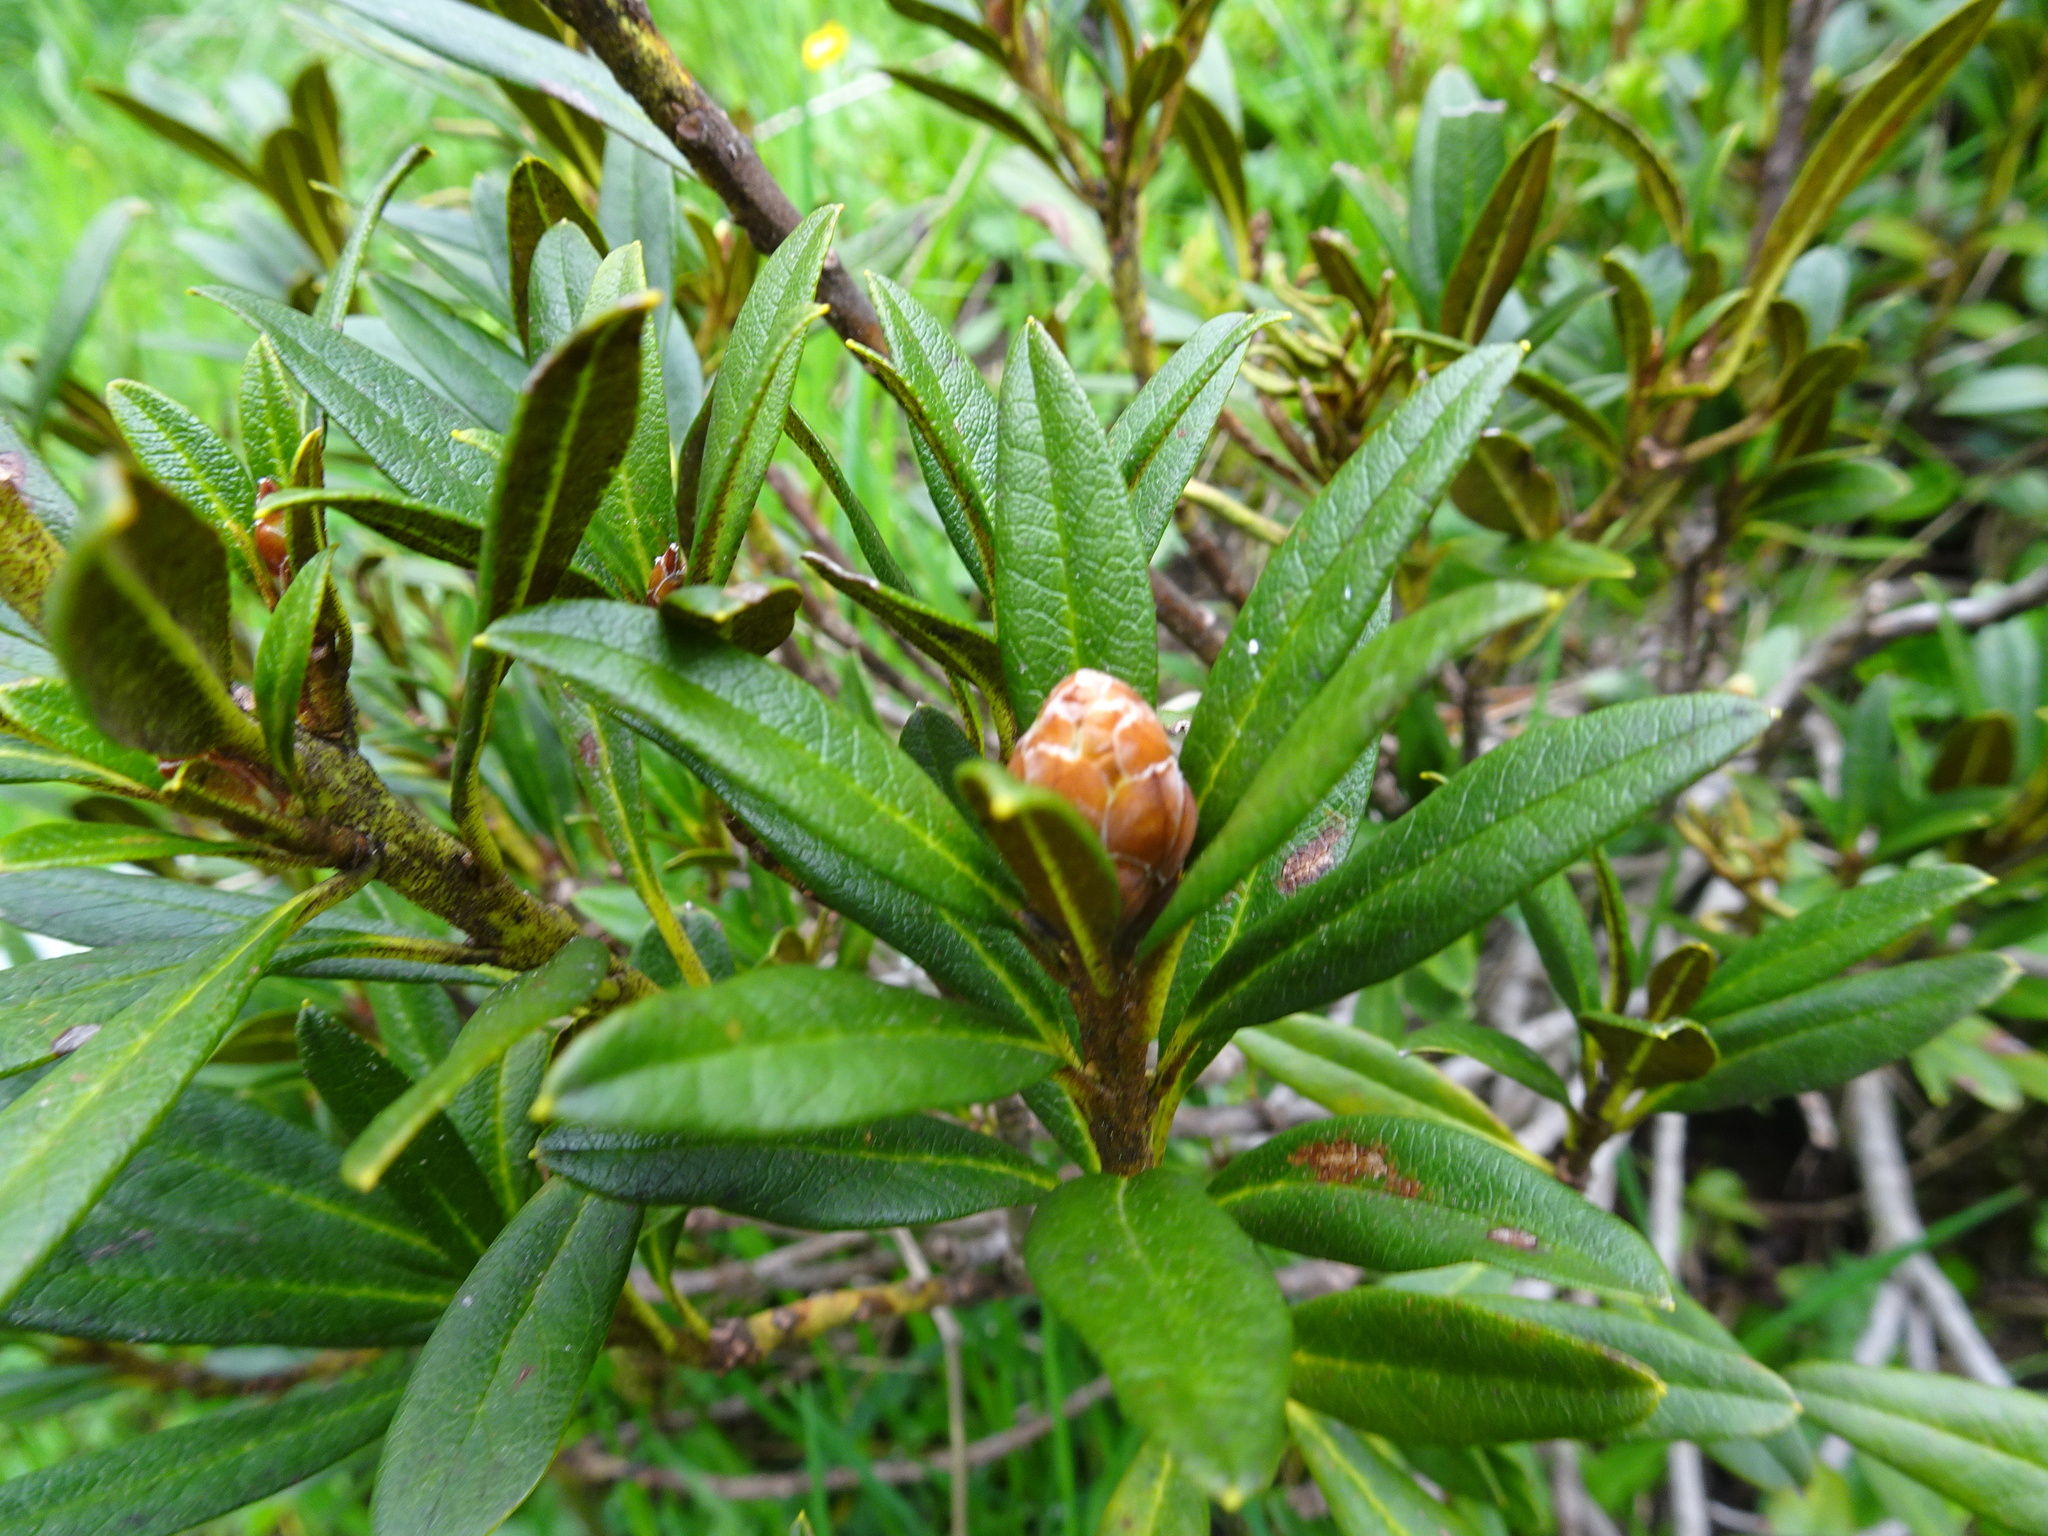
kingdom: Plantae
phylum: Tracheophyta
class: Magnoliopsida
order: Ericales
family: Ericaceae
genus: Rhododendron
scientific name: Rhododendron ferrugineum
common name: Alpenrose
